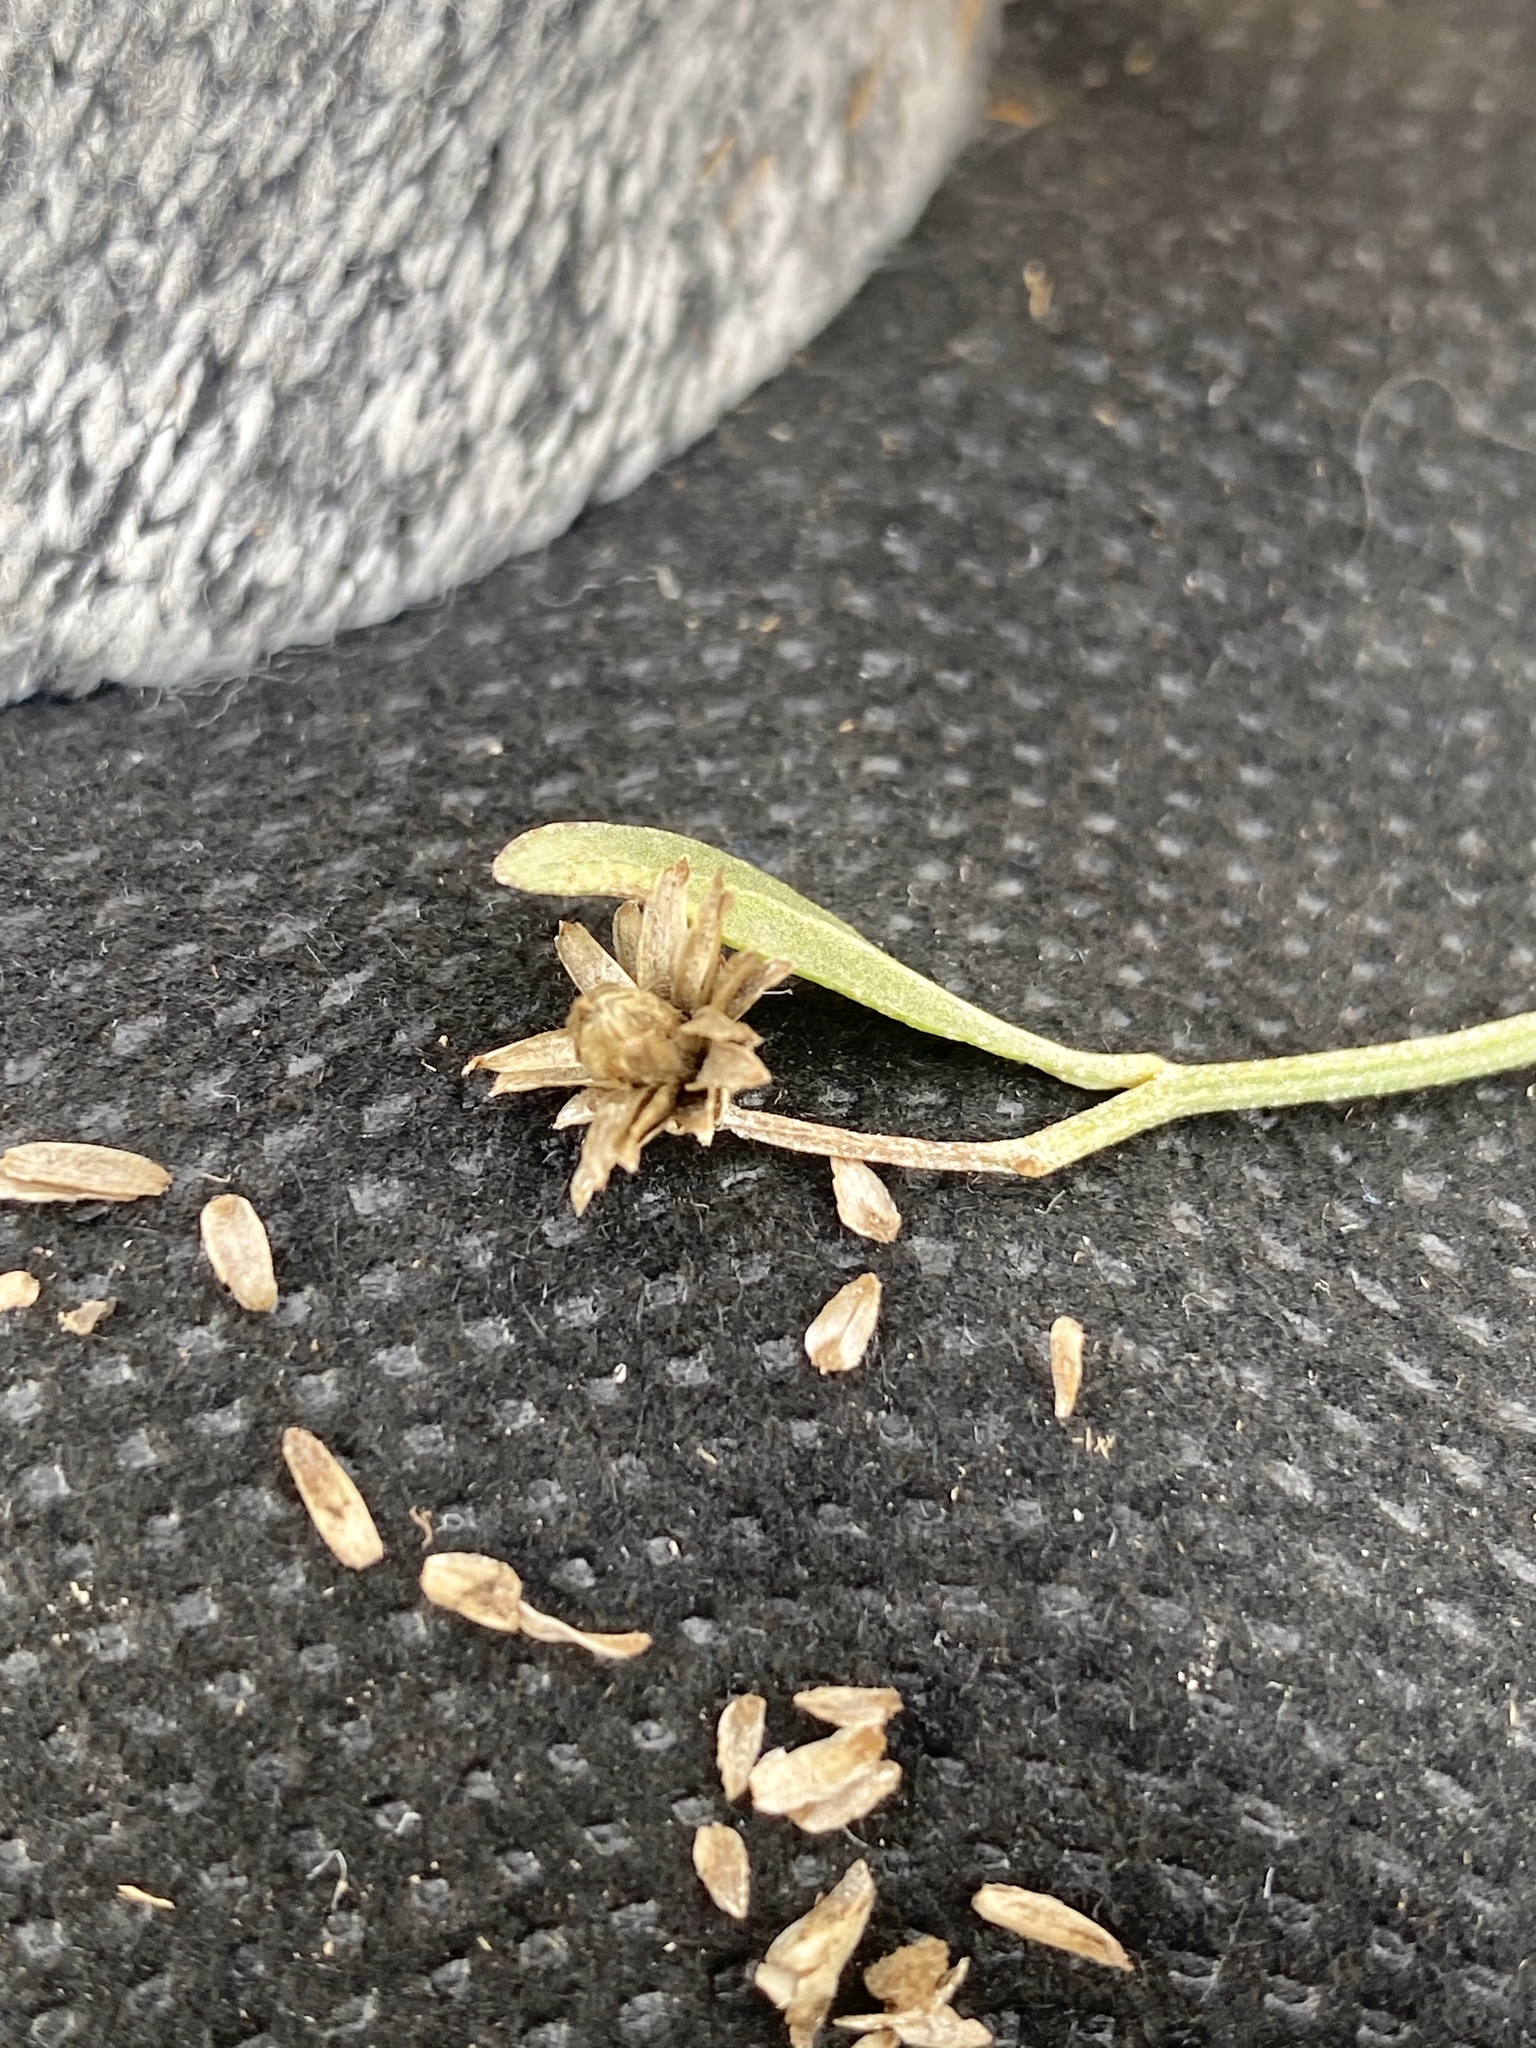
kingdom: Plantae
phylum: Tracheophyta
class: Magnoliopsida
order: Asterales
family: Asteraceae
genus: Baccharis
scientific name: Baccharis halimifolia
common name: Eastern baccharis
